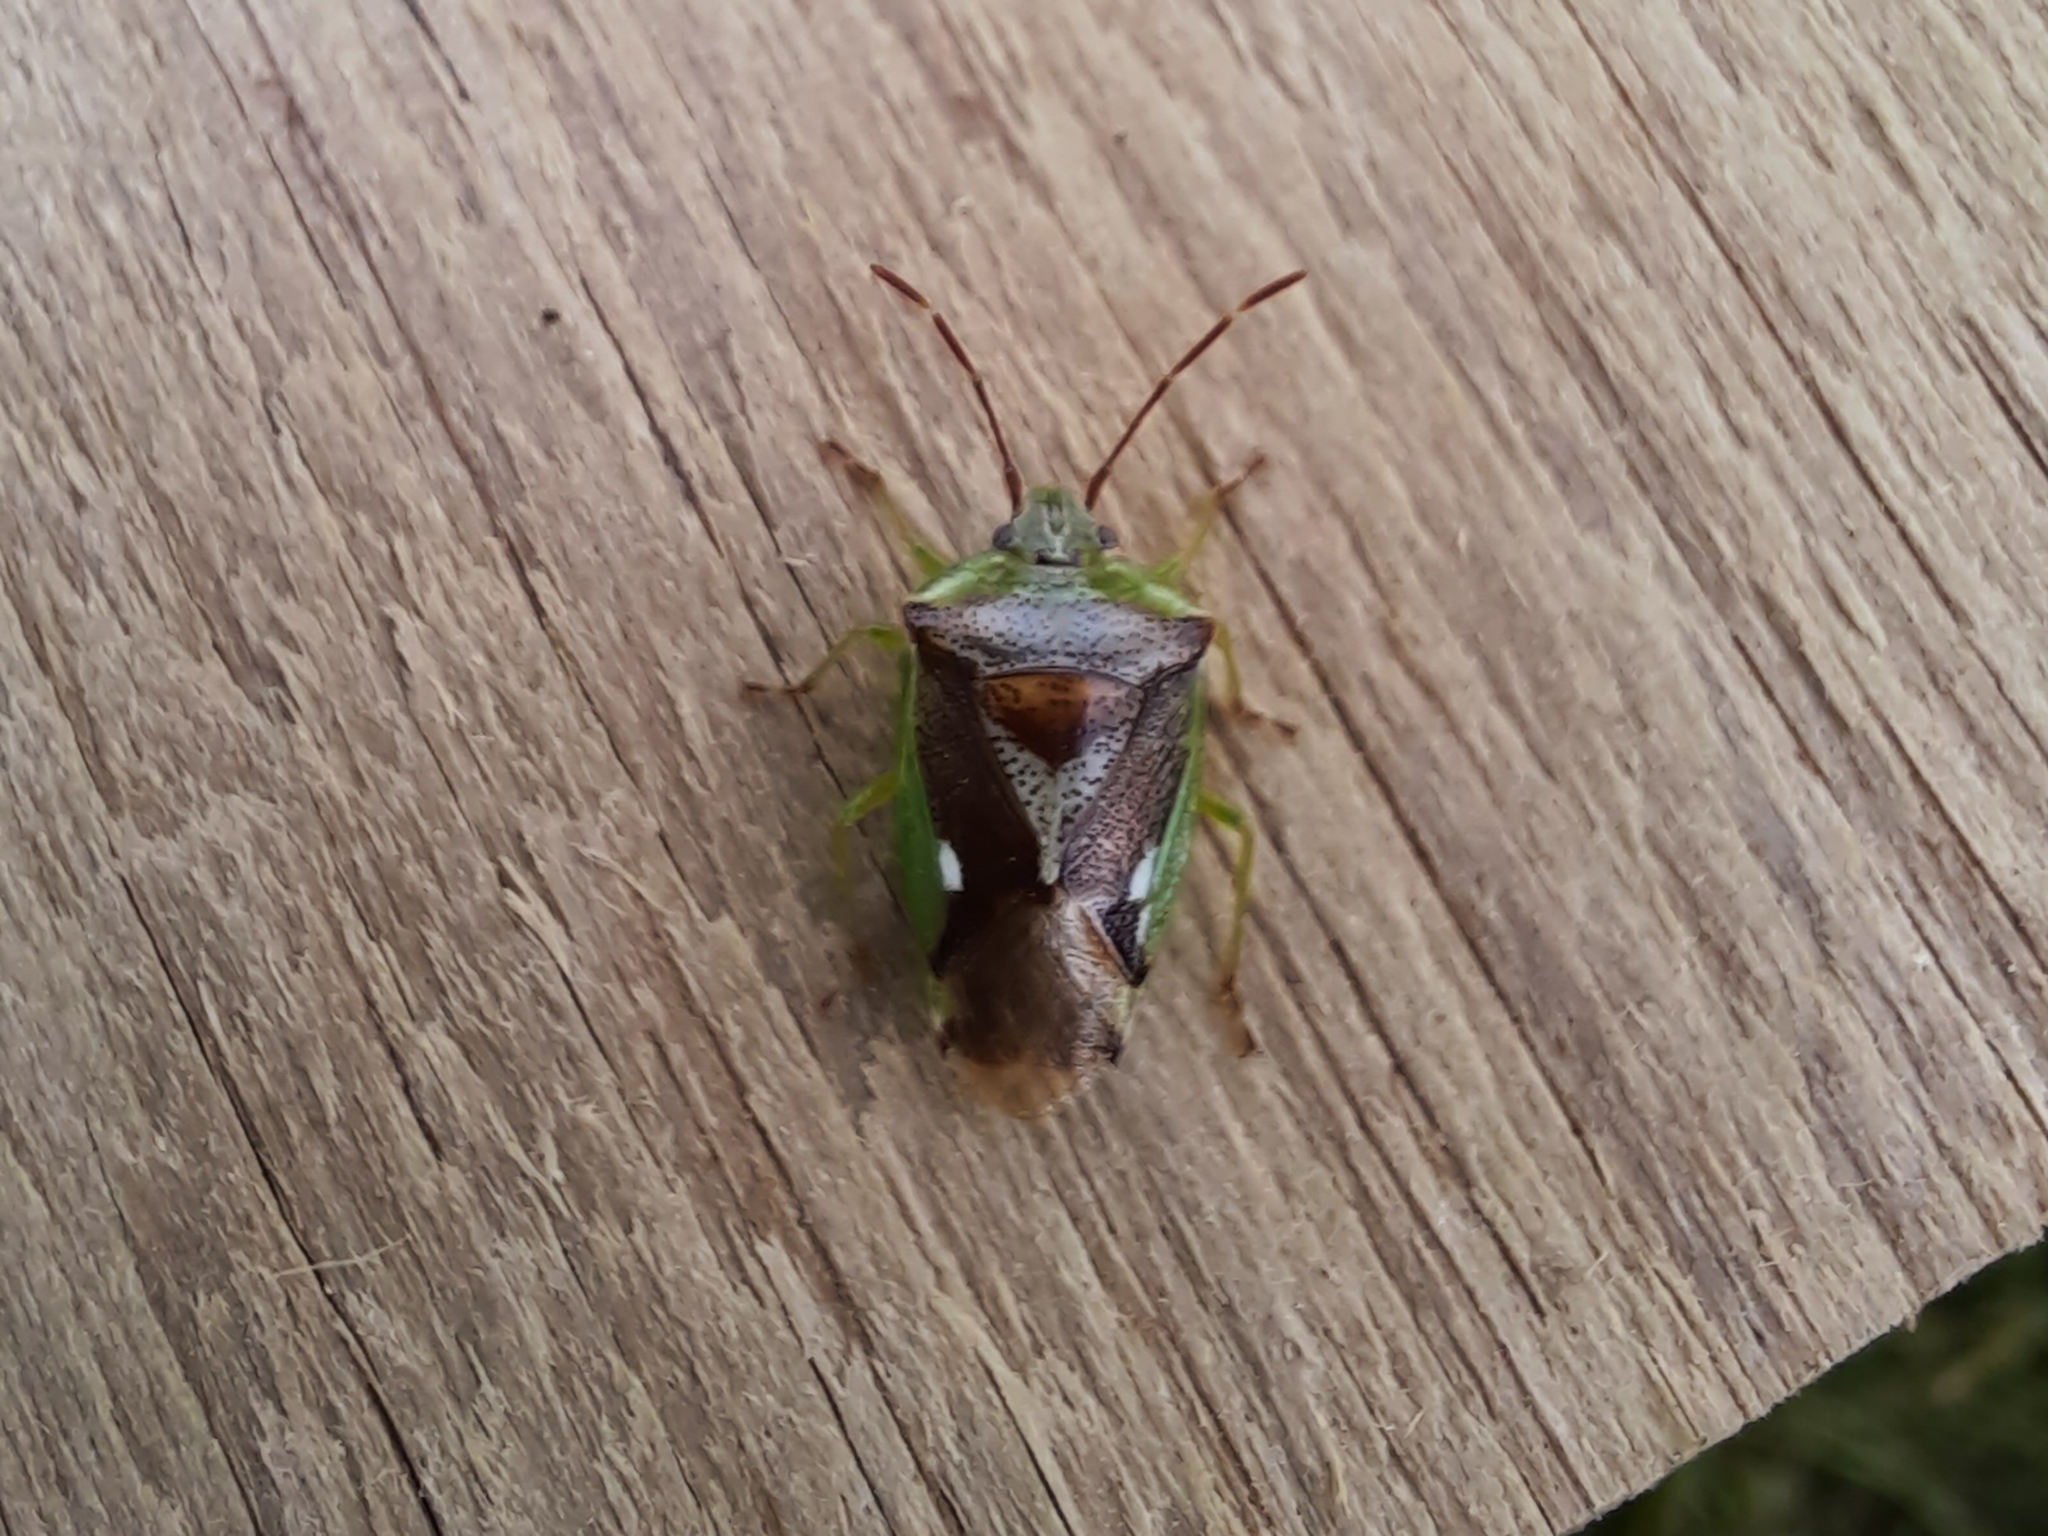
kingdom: Animalia
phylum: Arthropoda
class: Insecta
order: Hemiptera
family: Acanthosomatidae
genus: Oncacontias
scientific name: Oncacontias vittatus
